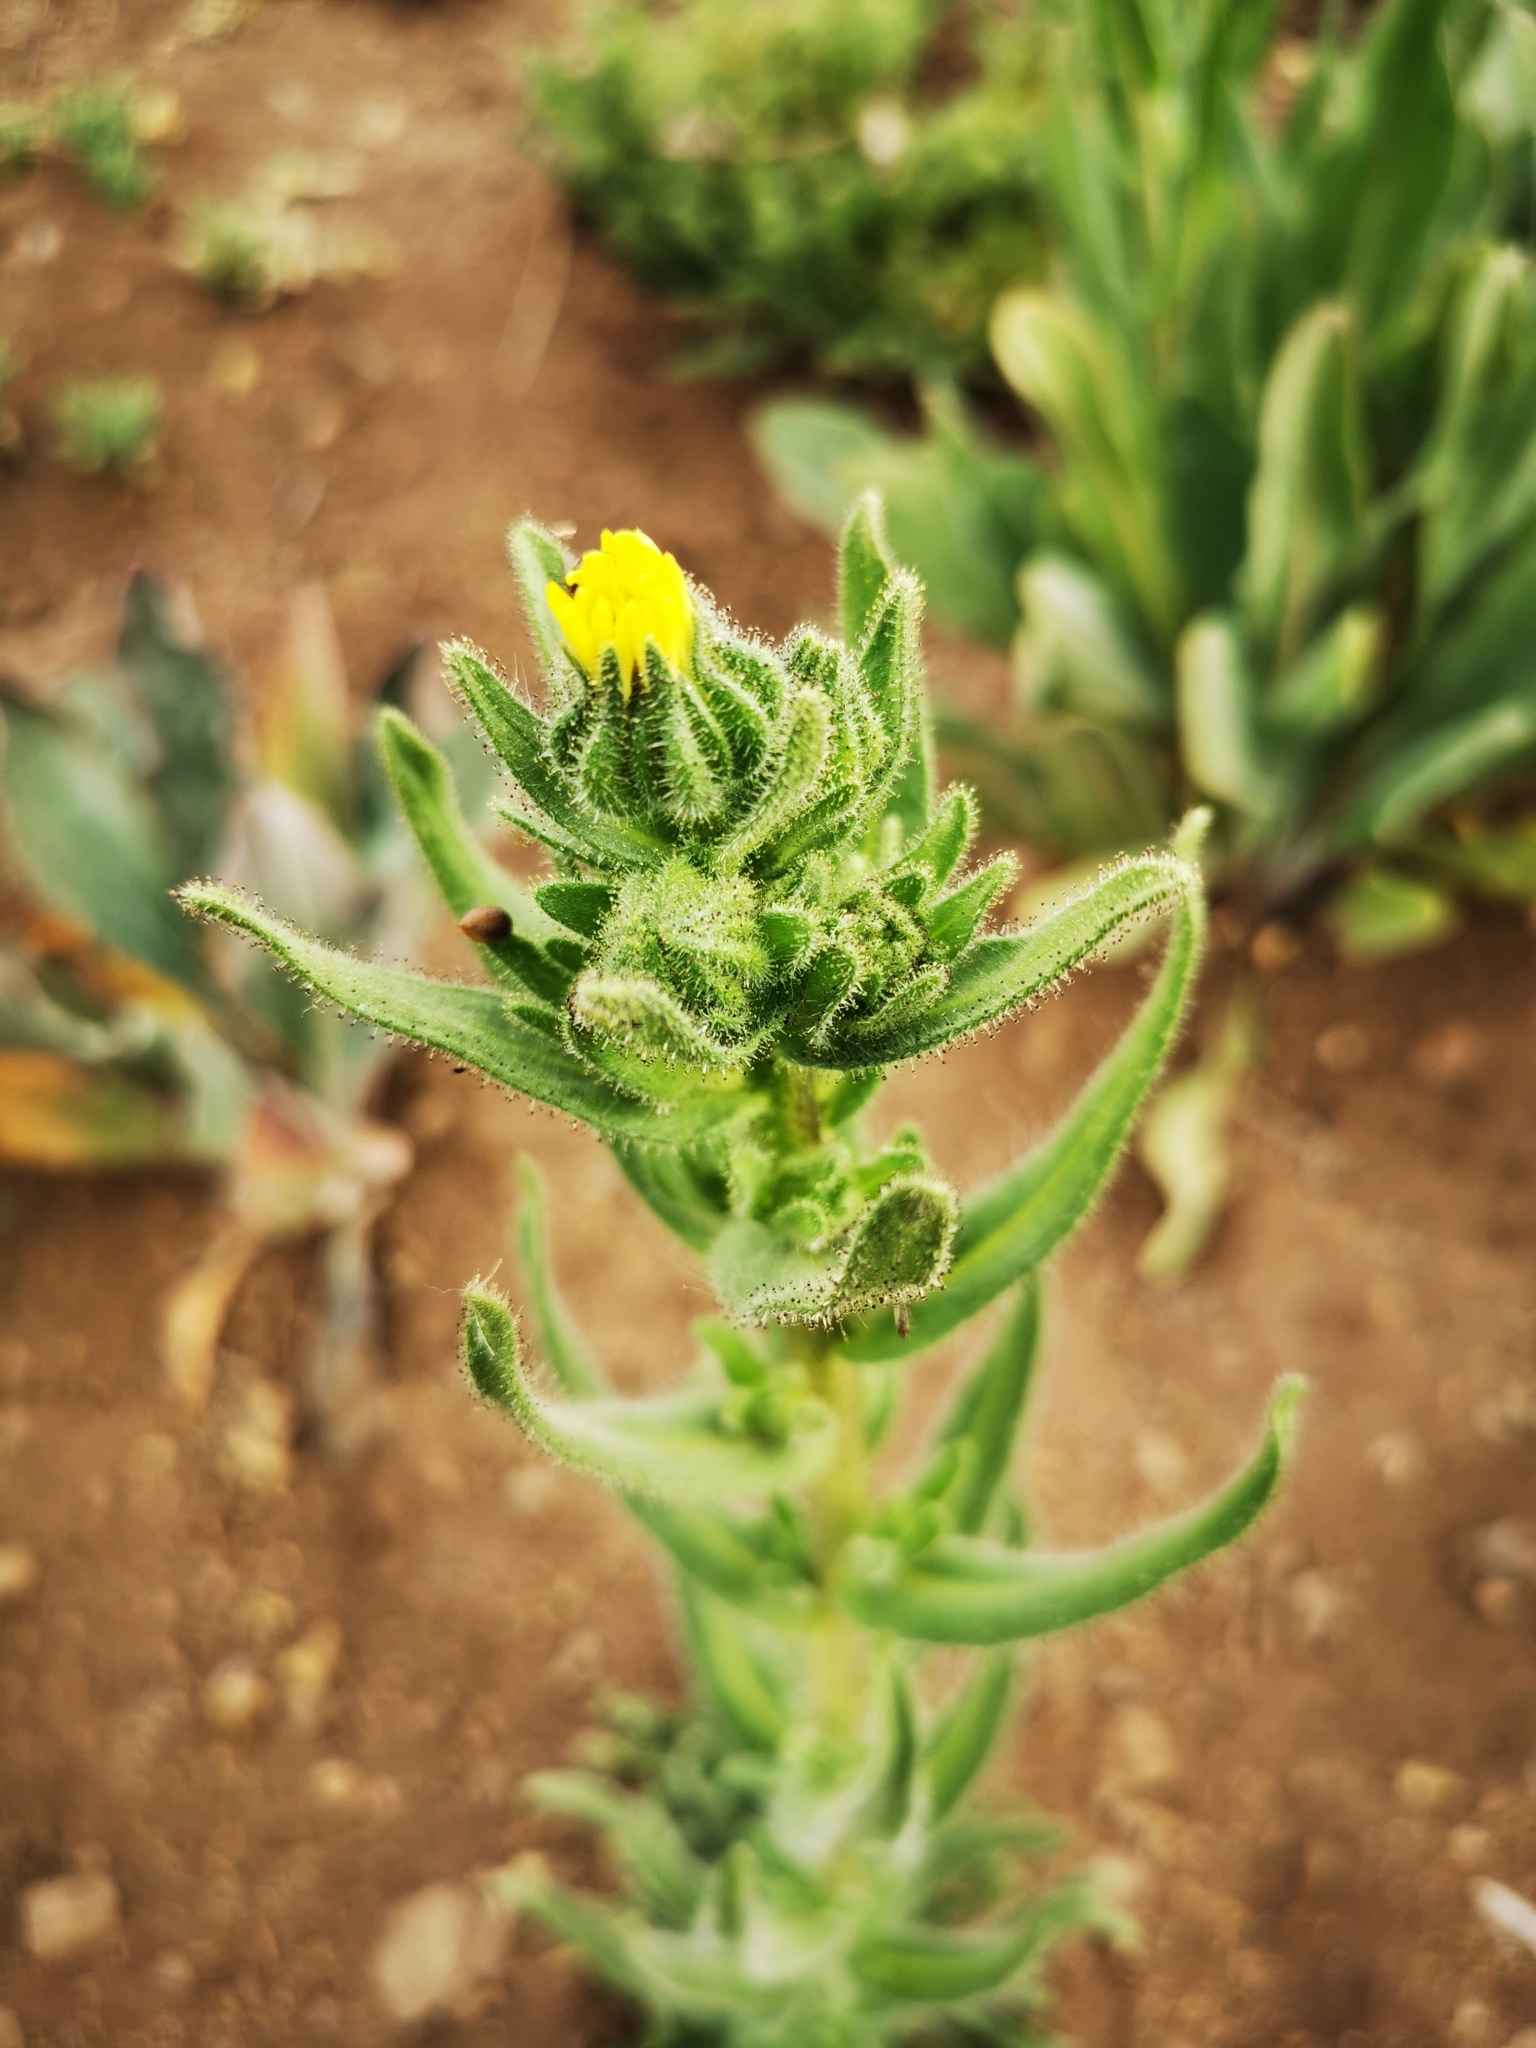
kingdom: Plantae
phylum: Tracheophyta
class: Magnoliopsida
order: Asterales
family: Asteraceae
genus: Madia
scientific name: Madia chilensis
